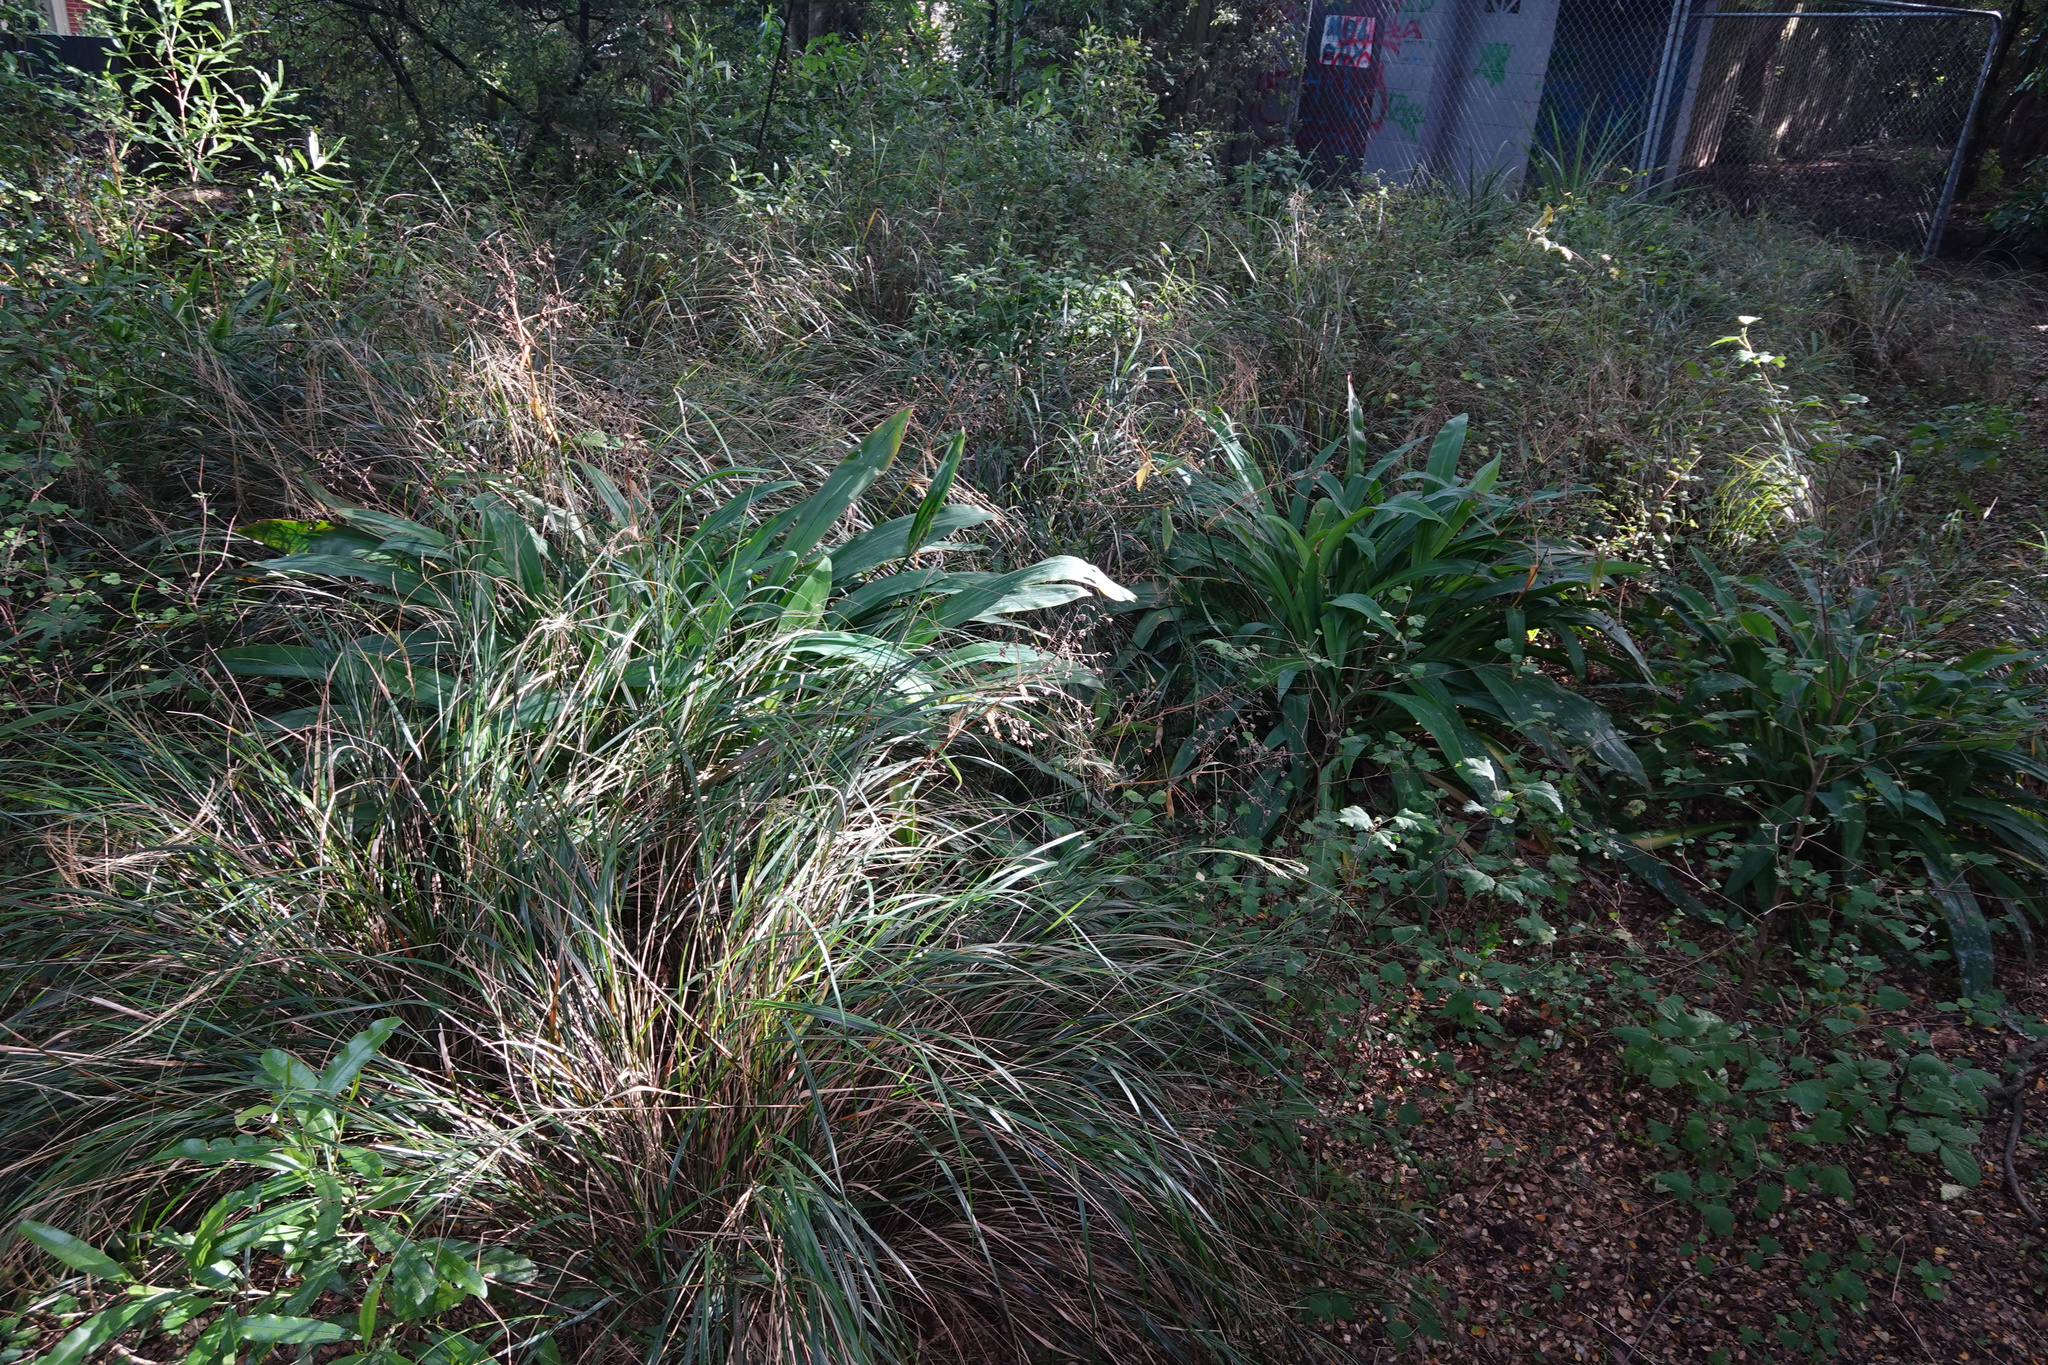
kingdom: Plantae
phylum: Tracheophyta
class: Liliopsida
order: Poales
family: Poaceae
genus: Anemanthele
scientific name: Anemanthele lessoniana
